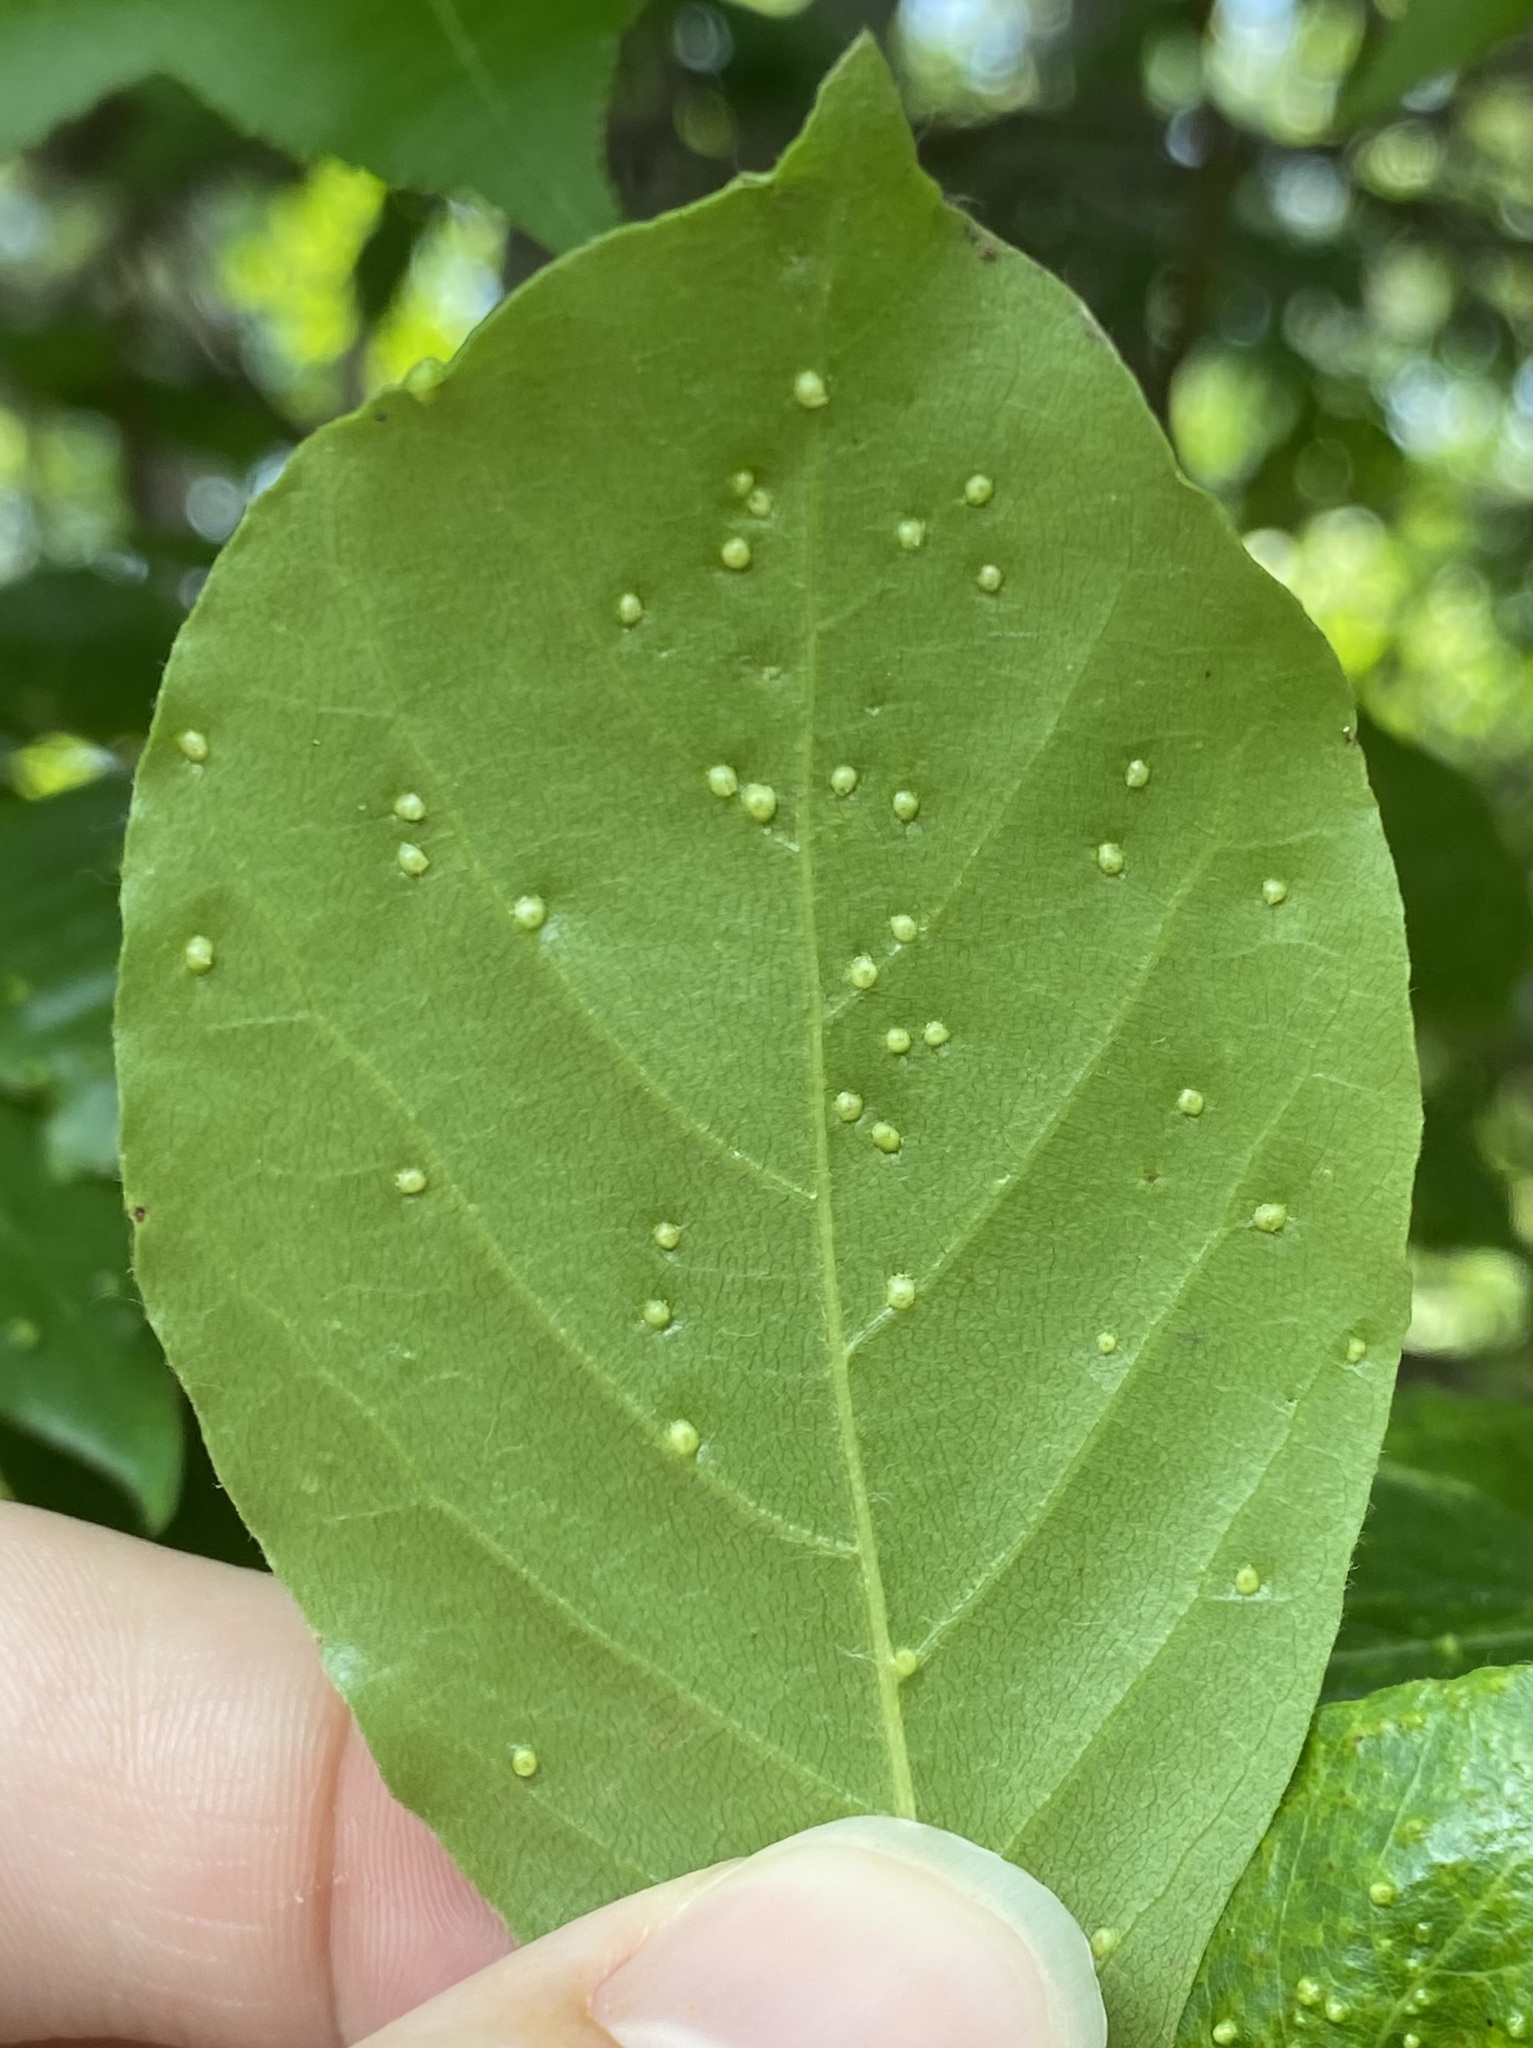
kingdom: Animalia
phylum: Arthropoda
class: Arachnida
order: Trombidiformes
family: Eriophyidae
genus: Aceria
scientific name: Aceria
